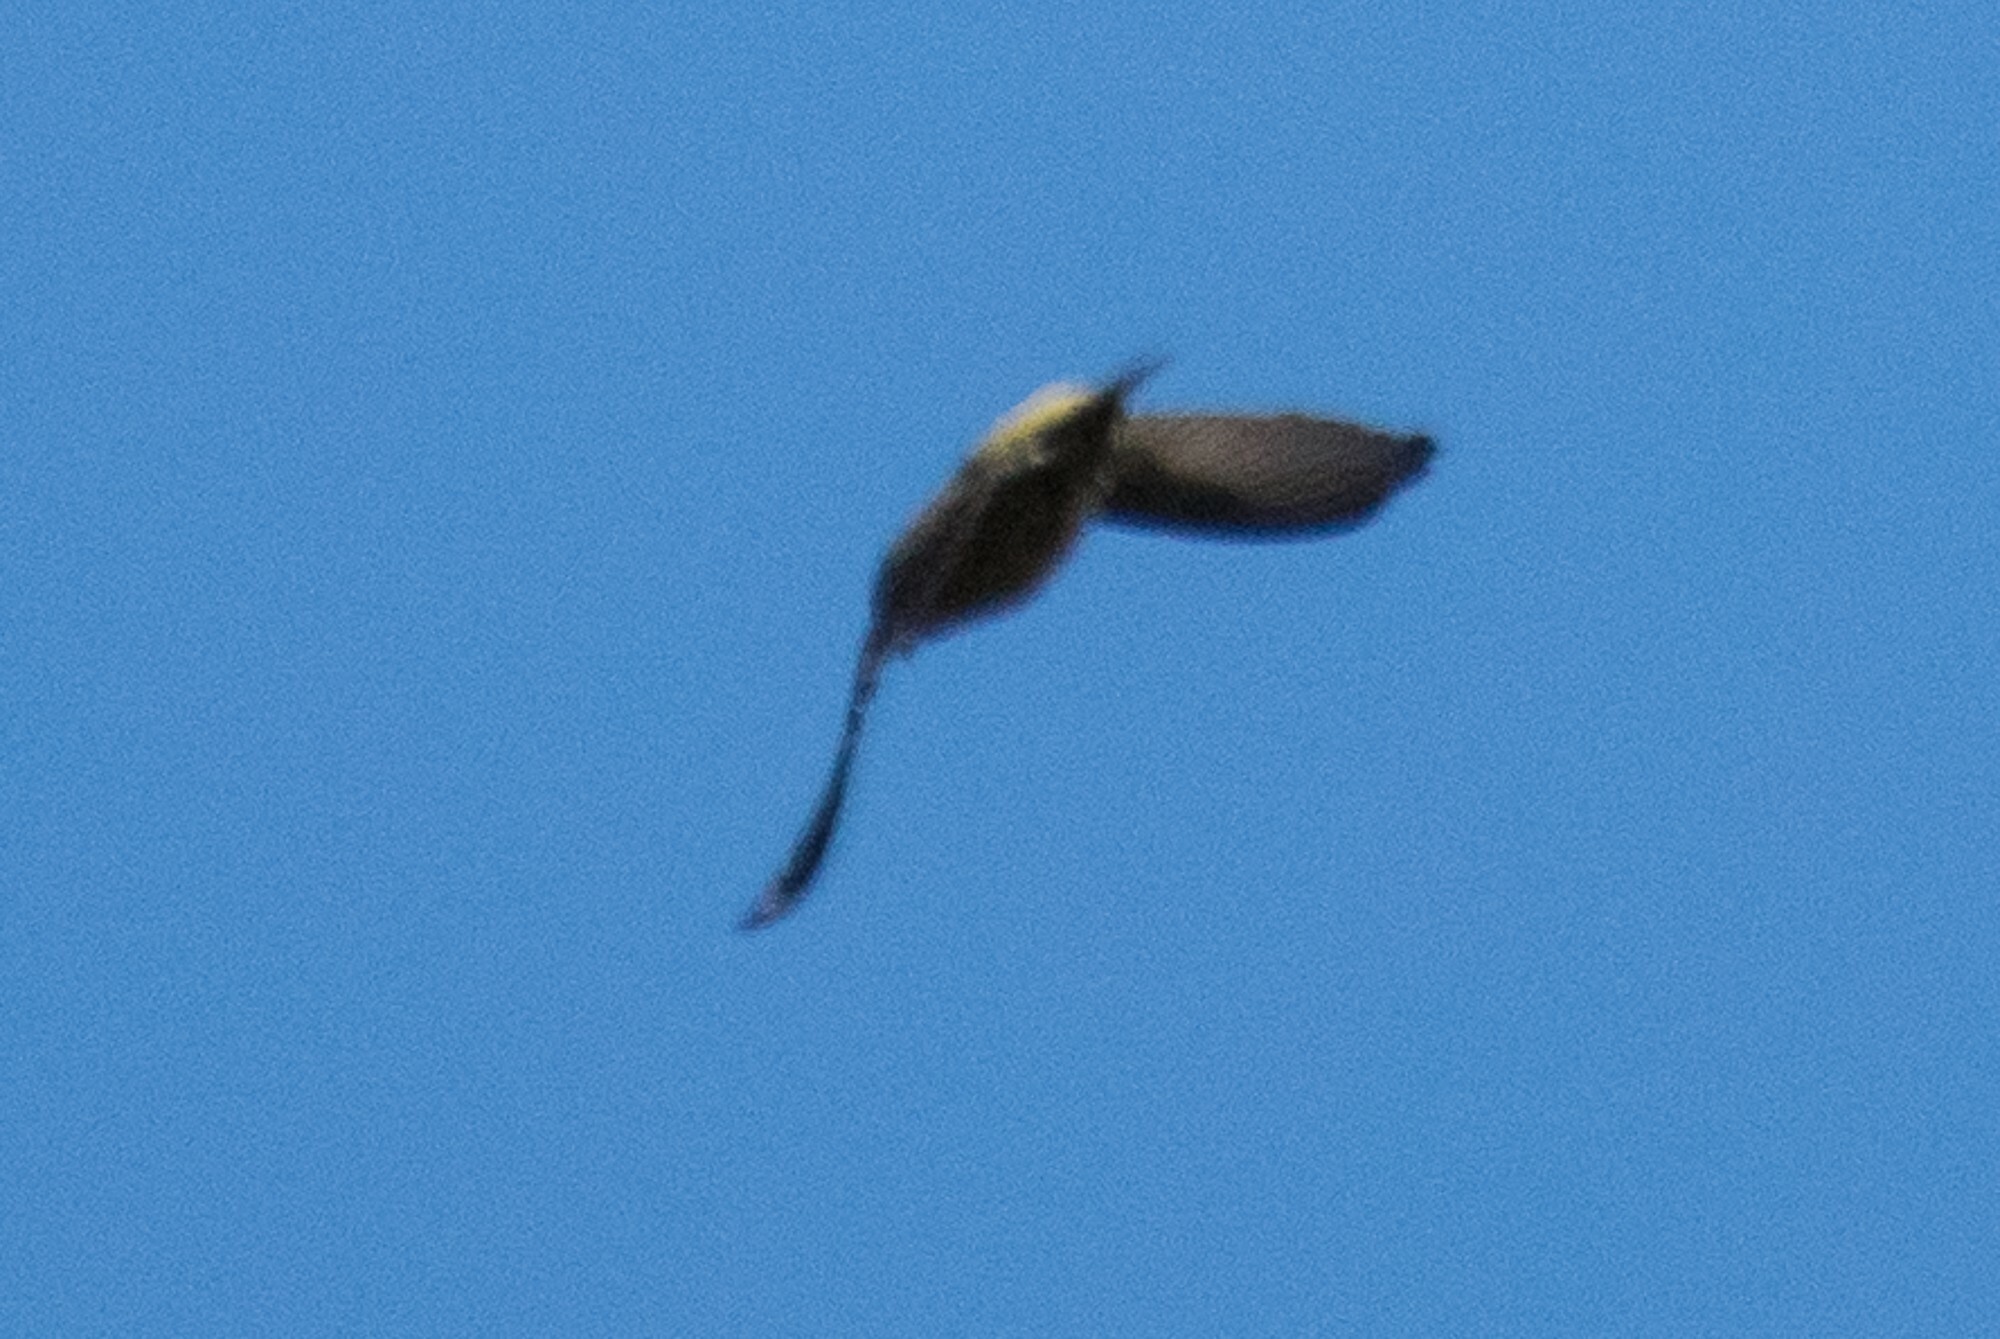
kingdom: Animalia
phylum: Chordata
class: Aves
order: Passeriformes
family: Fringillidae
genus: Loxia
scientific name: Loxia curvirostra
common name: Red crossbill
